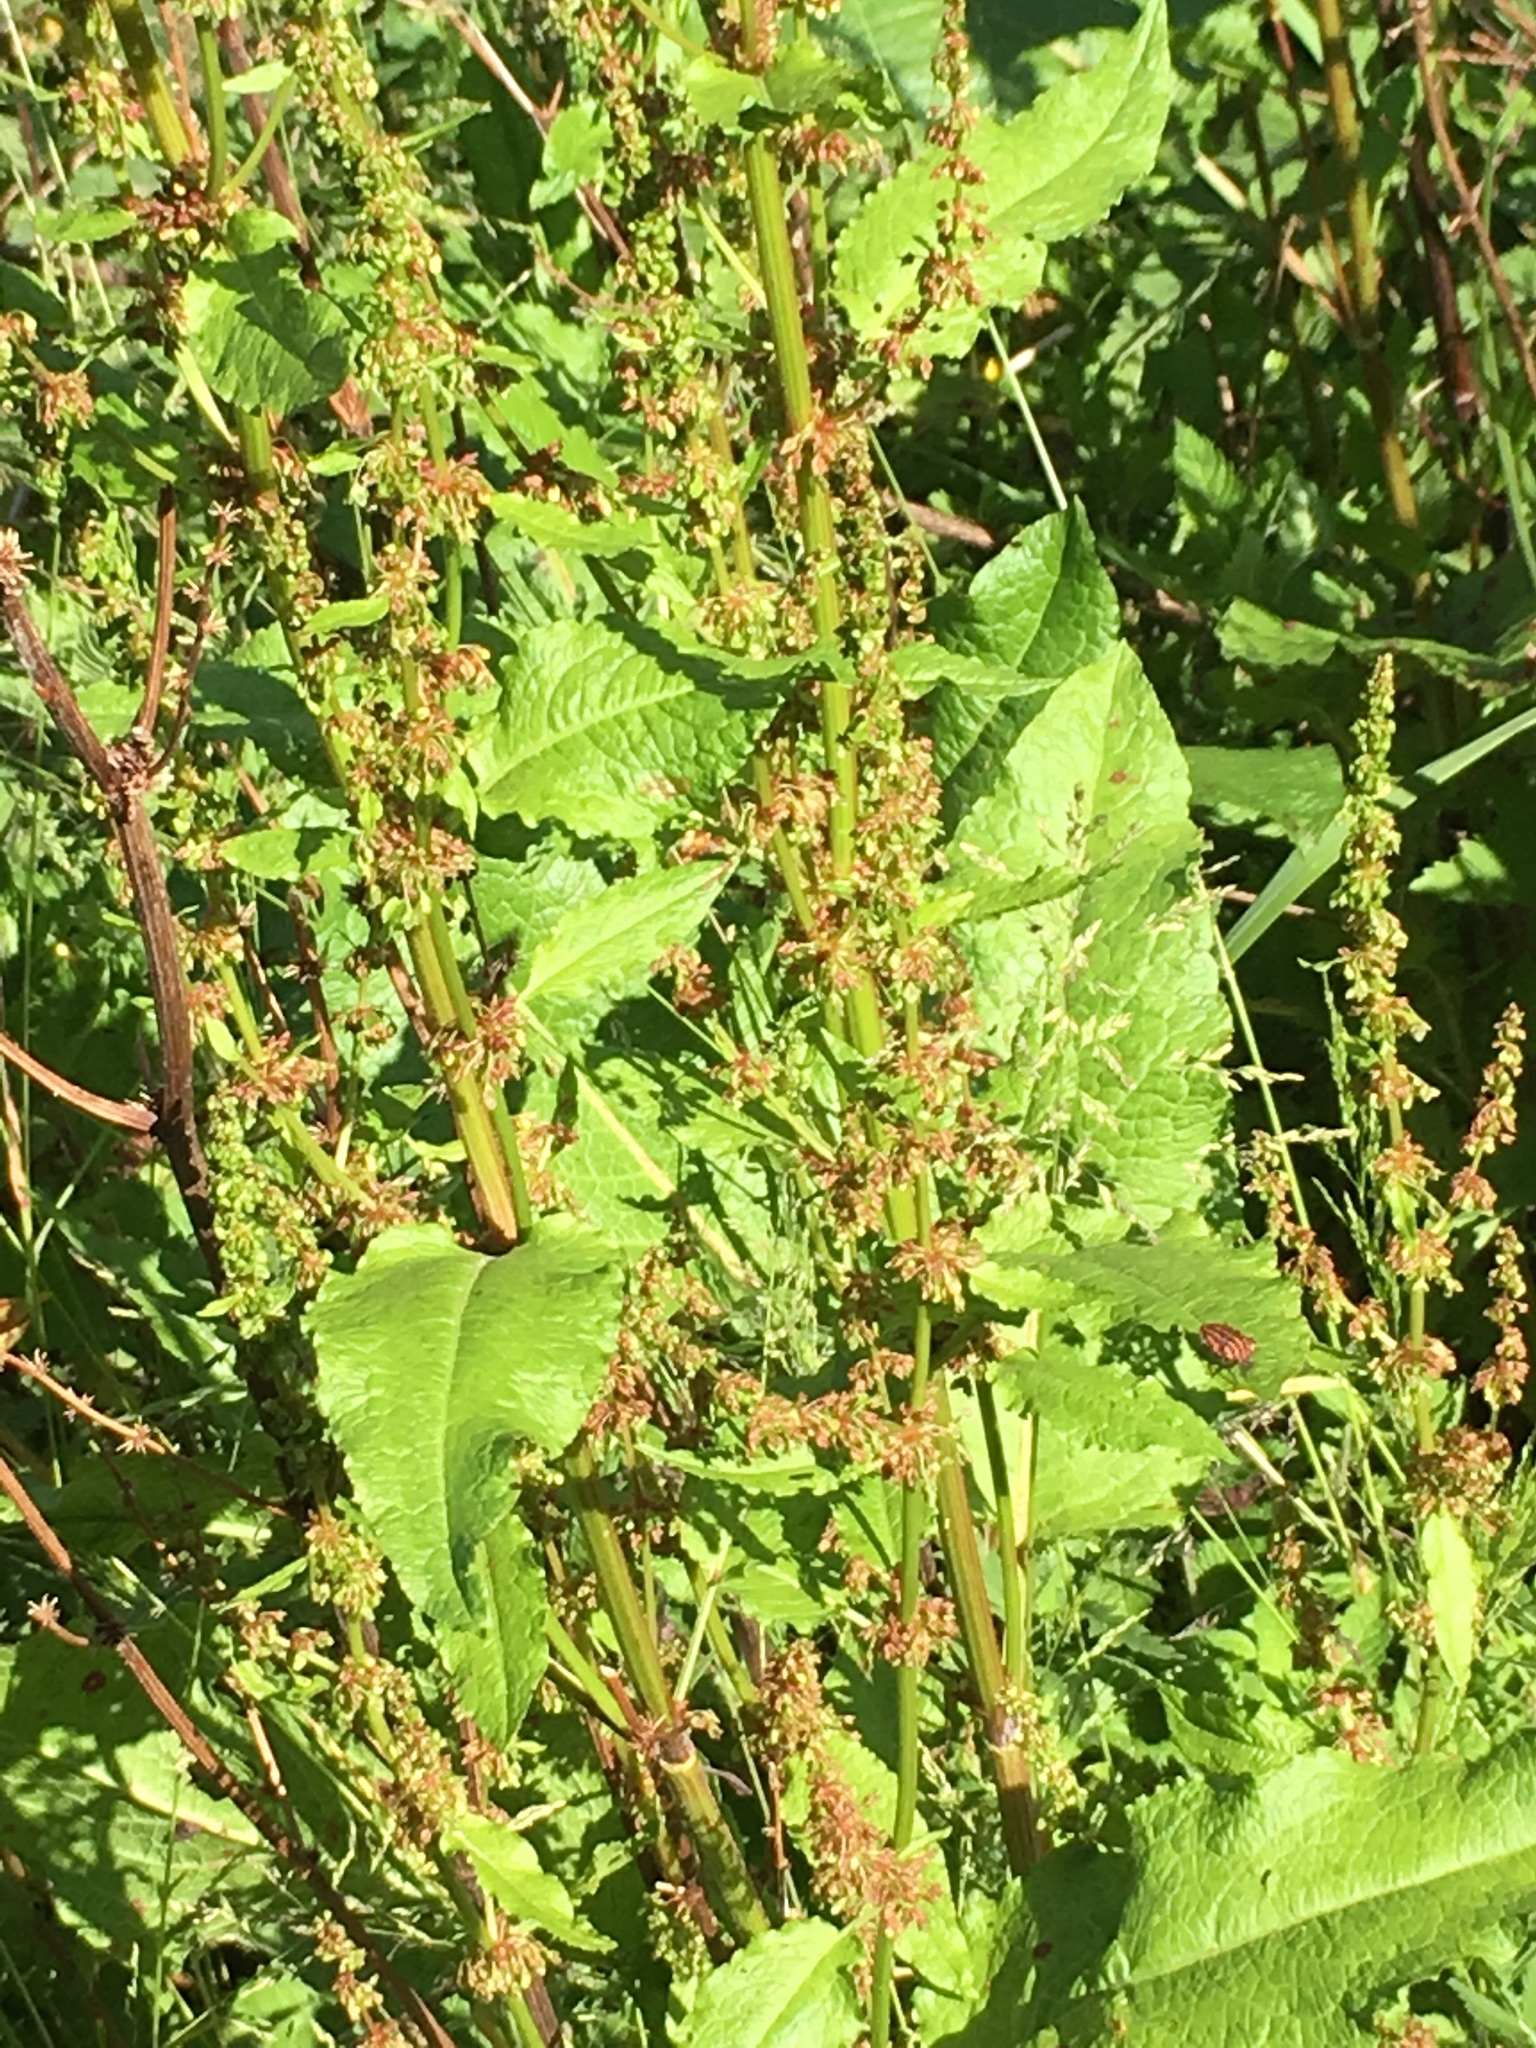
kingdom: Plantae
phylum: Tracheophyta
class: Magnoliopsida
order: Caryophyllales
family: Polygonaceae
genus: Rumex
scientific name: Rumex obtusifolius
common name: Bitter dock
